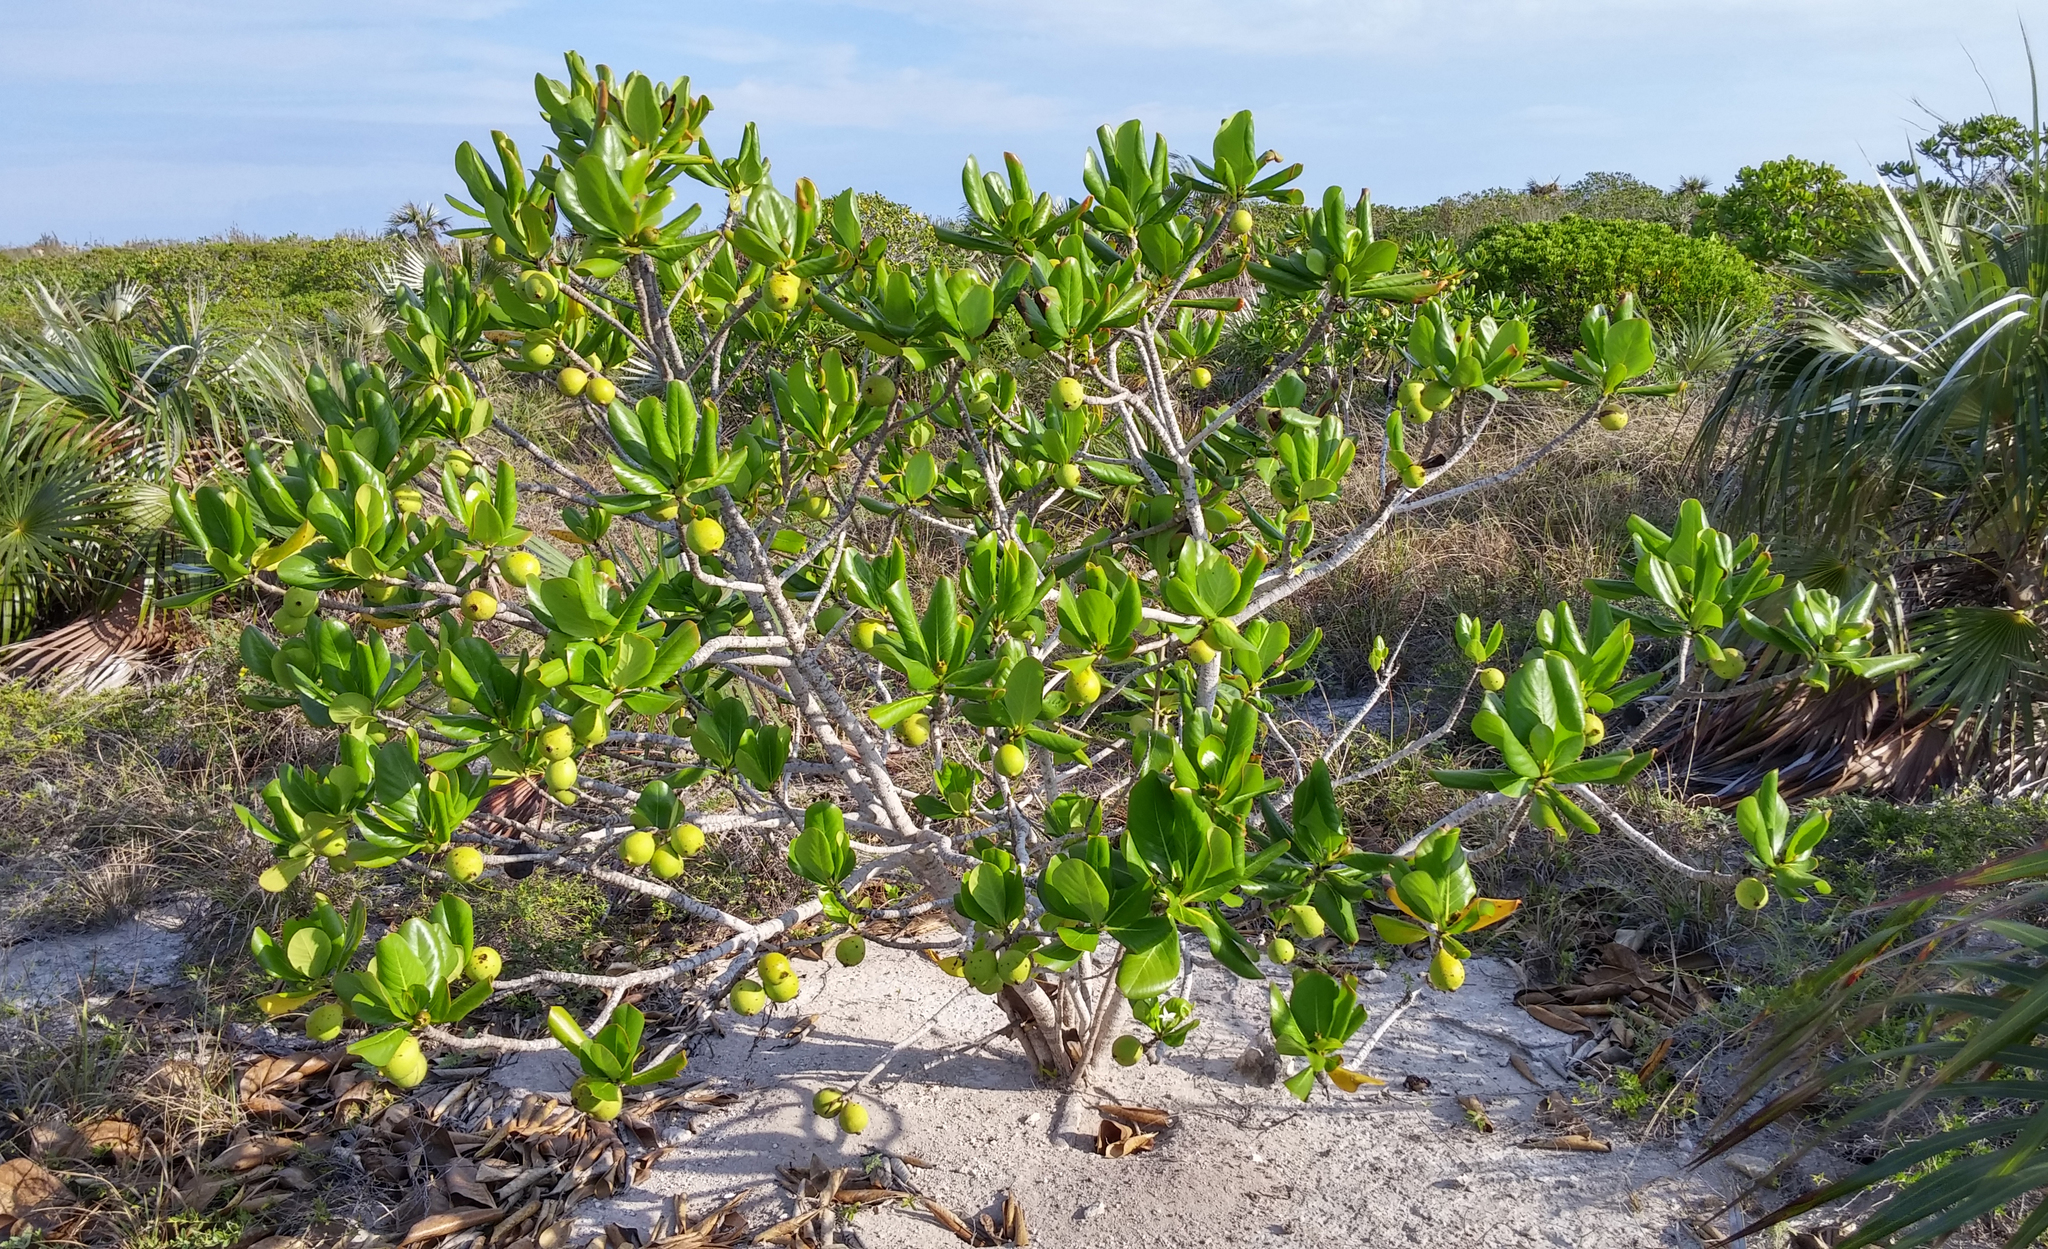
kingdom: Plantae
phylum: Tracheophyta
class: Magnoliopsida
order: Gentianales
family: Rubiaceae
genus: Casasia
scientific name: Casasia clusiifolia
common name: Seven-year apple
